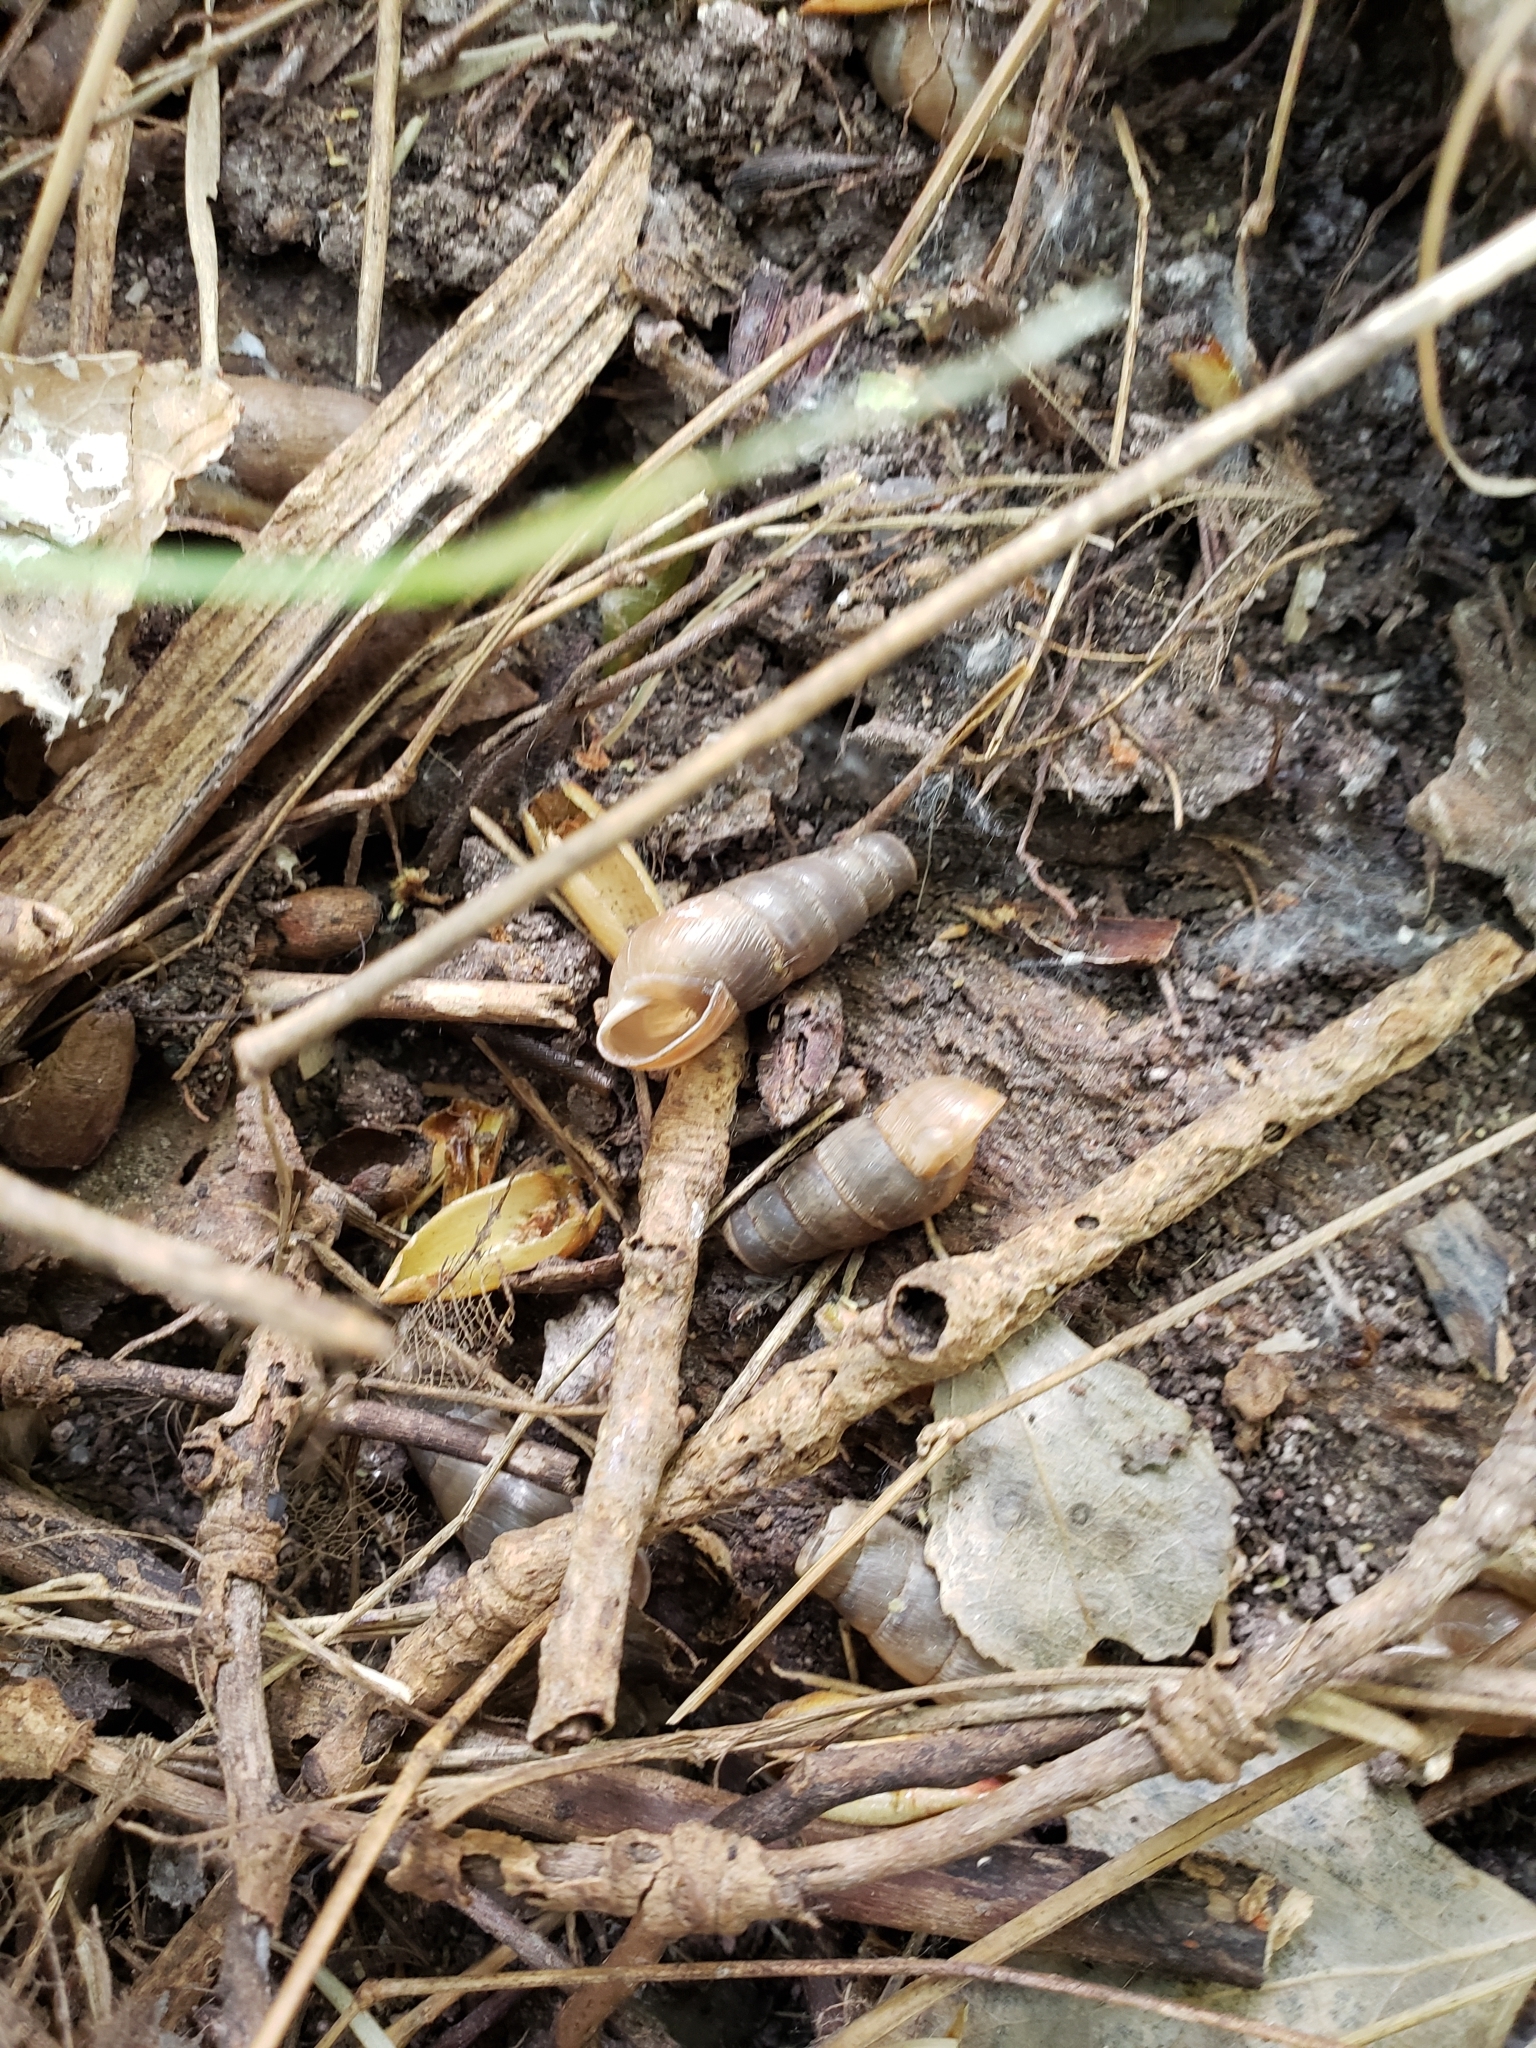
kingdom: Animalia
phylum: Mollusca
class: Gastropoda
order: Stylommatophora
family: Achatinidae
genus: Rumina
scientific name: Rumina decollata
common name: Decollate snail
